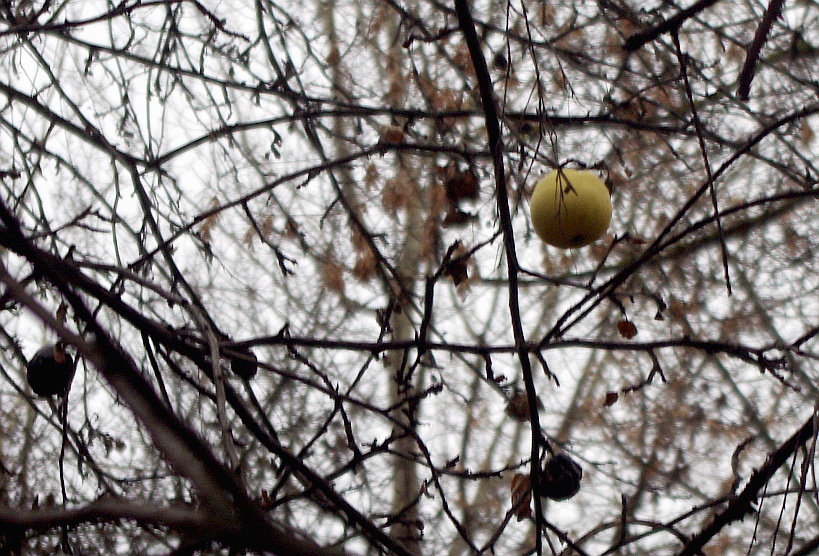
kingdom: Plantae
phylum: Tracheophyta
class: Magnoliopsida
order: Rosales
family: Rosaceae
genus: Malus
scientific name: Malus domestica
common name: Apple
